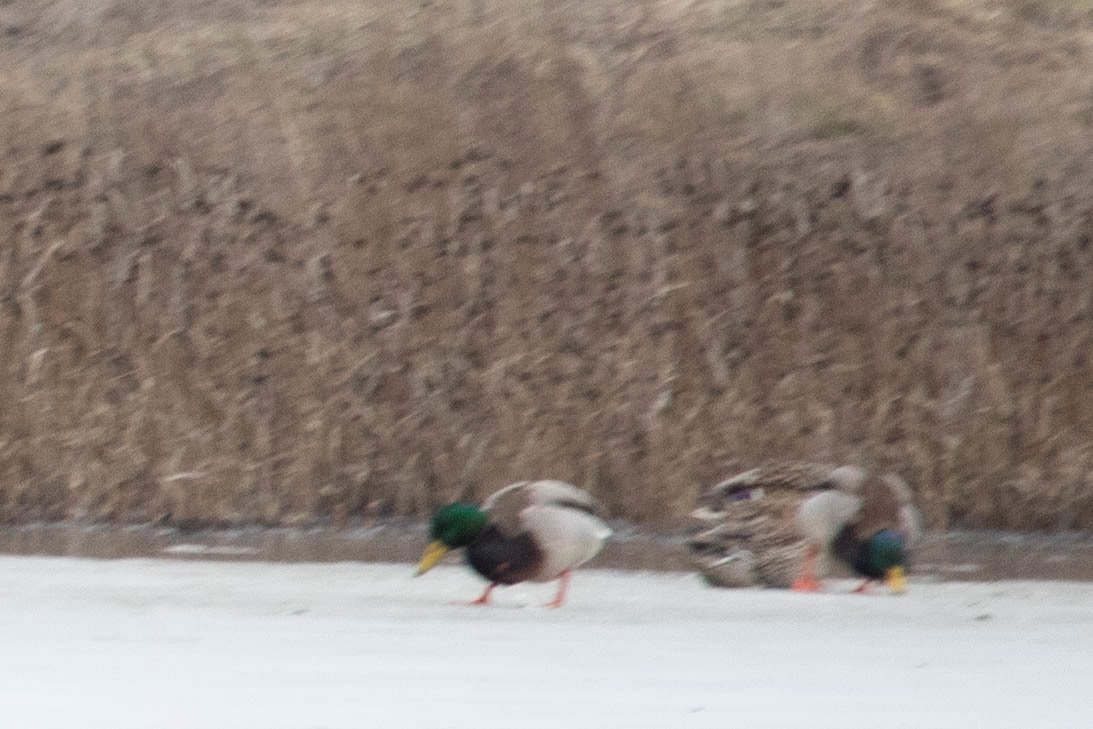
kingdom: Animalia
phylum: Chordata
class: Aves
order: Anseriformes
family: Anatidae
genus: Anas
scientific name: Anas platyrhynchos
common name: Mallard
